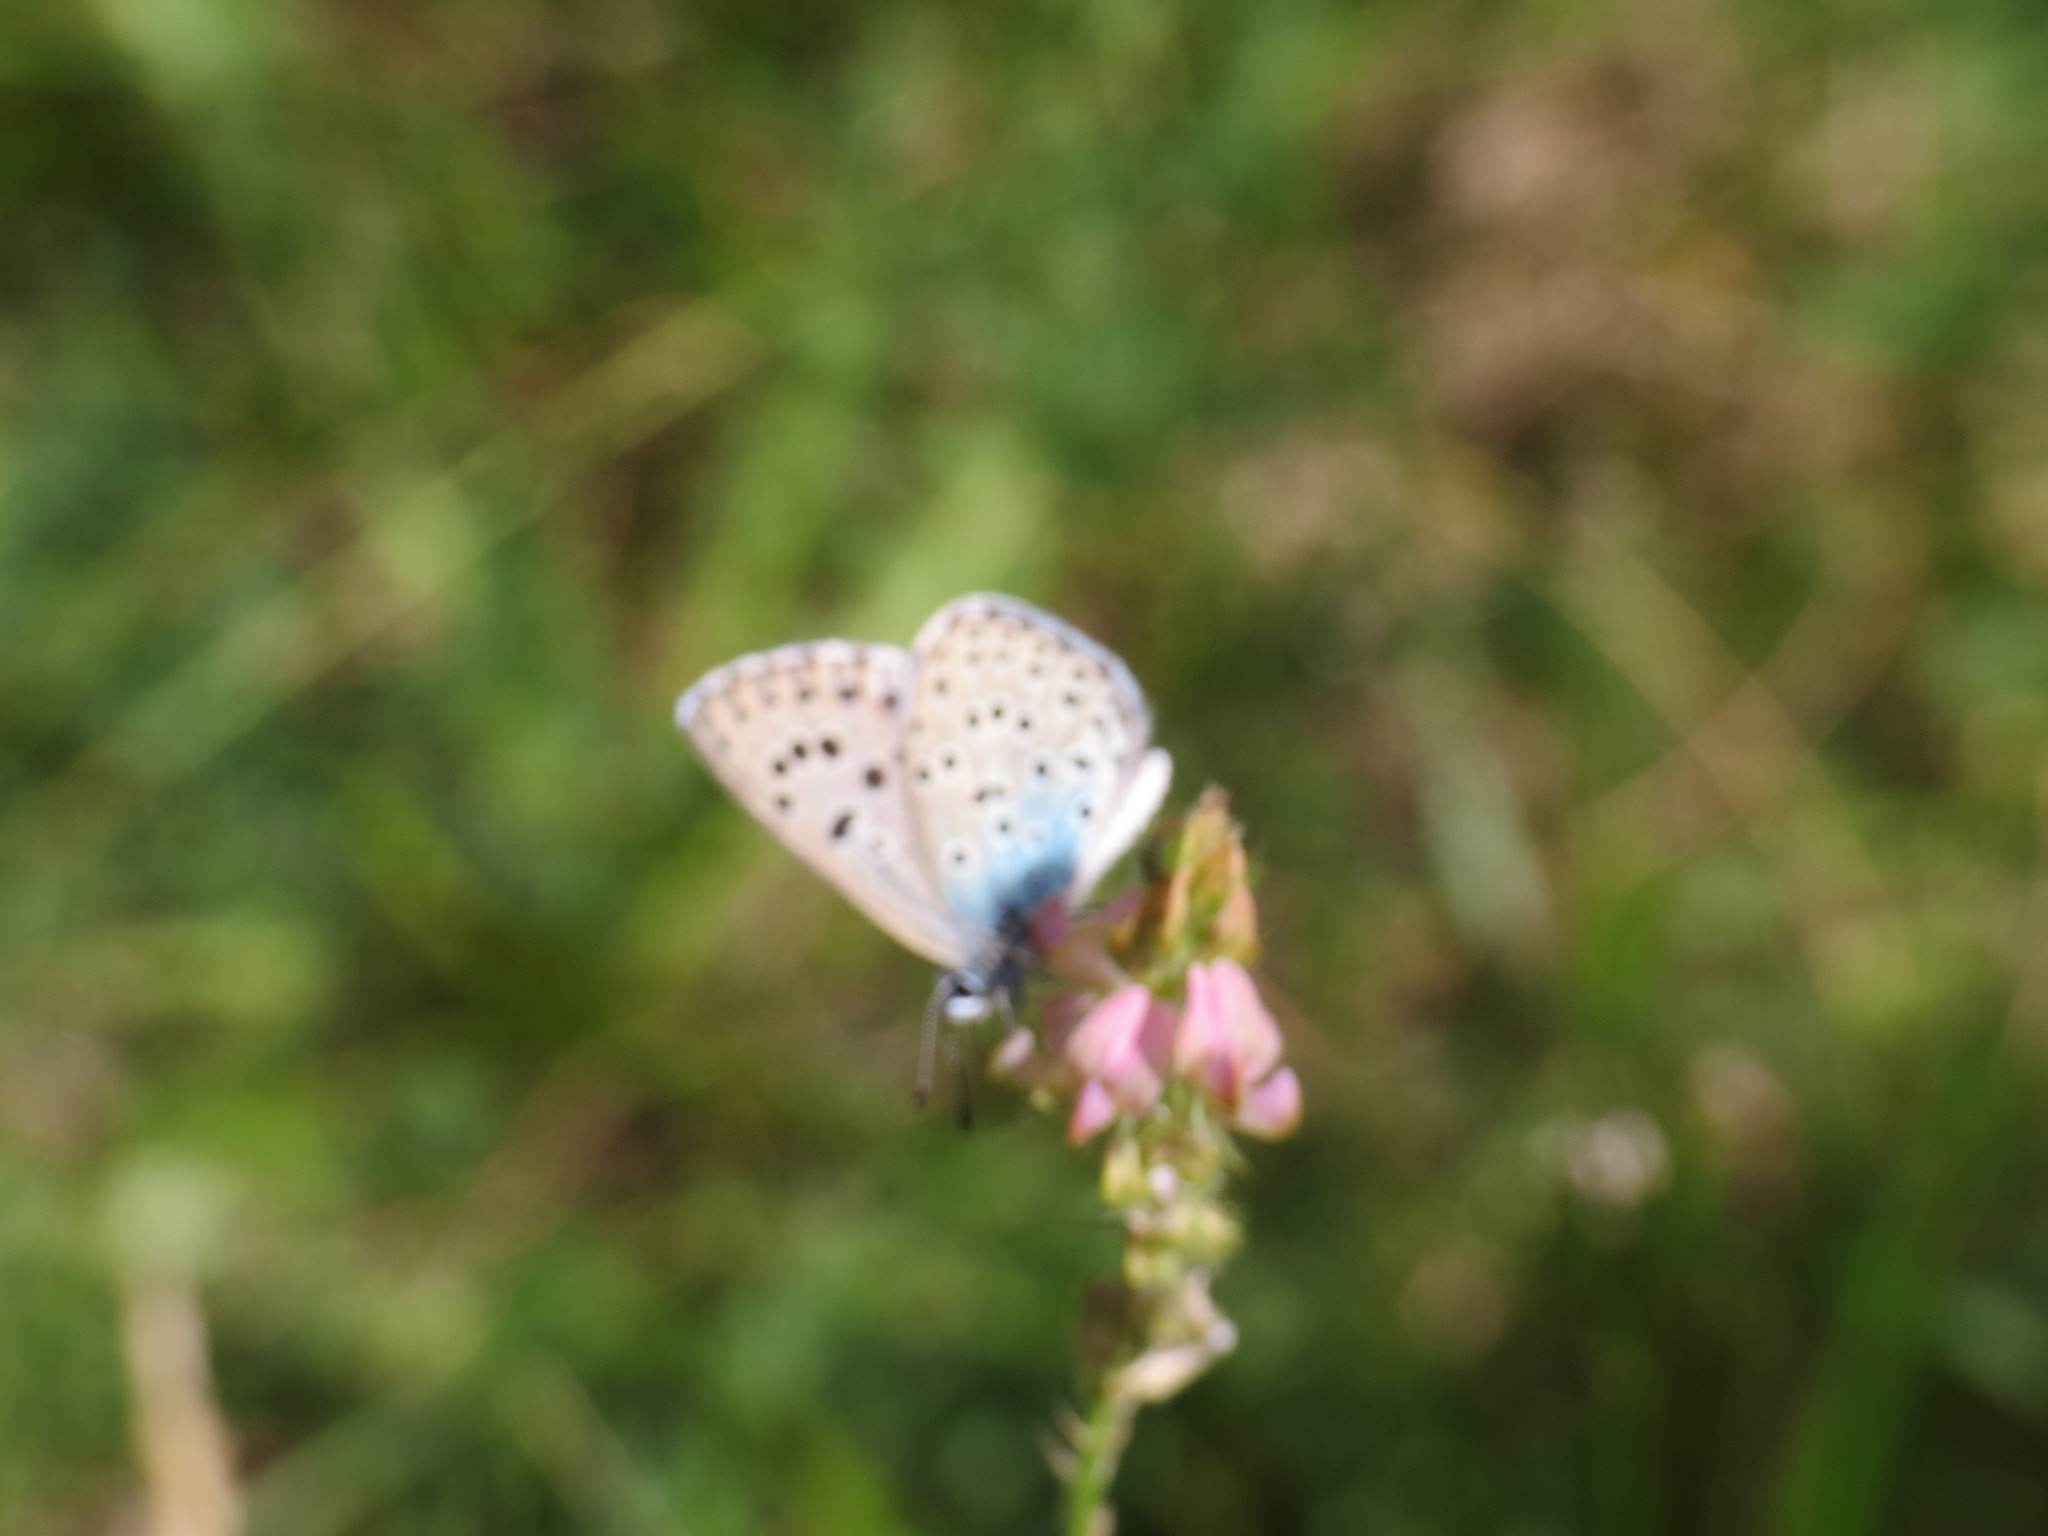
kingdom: Animalia
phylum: Arthropoda
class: Insecta
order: Lepidoptera
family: Lycaenidae
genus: Maculinea
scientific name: Maculinea arion
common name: Large blue
